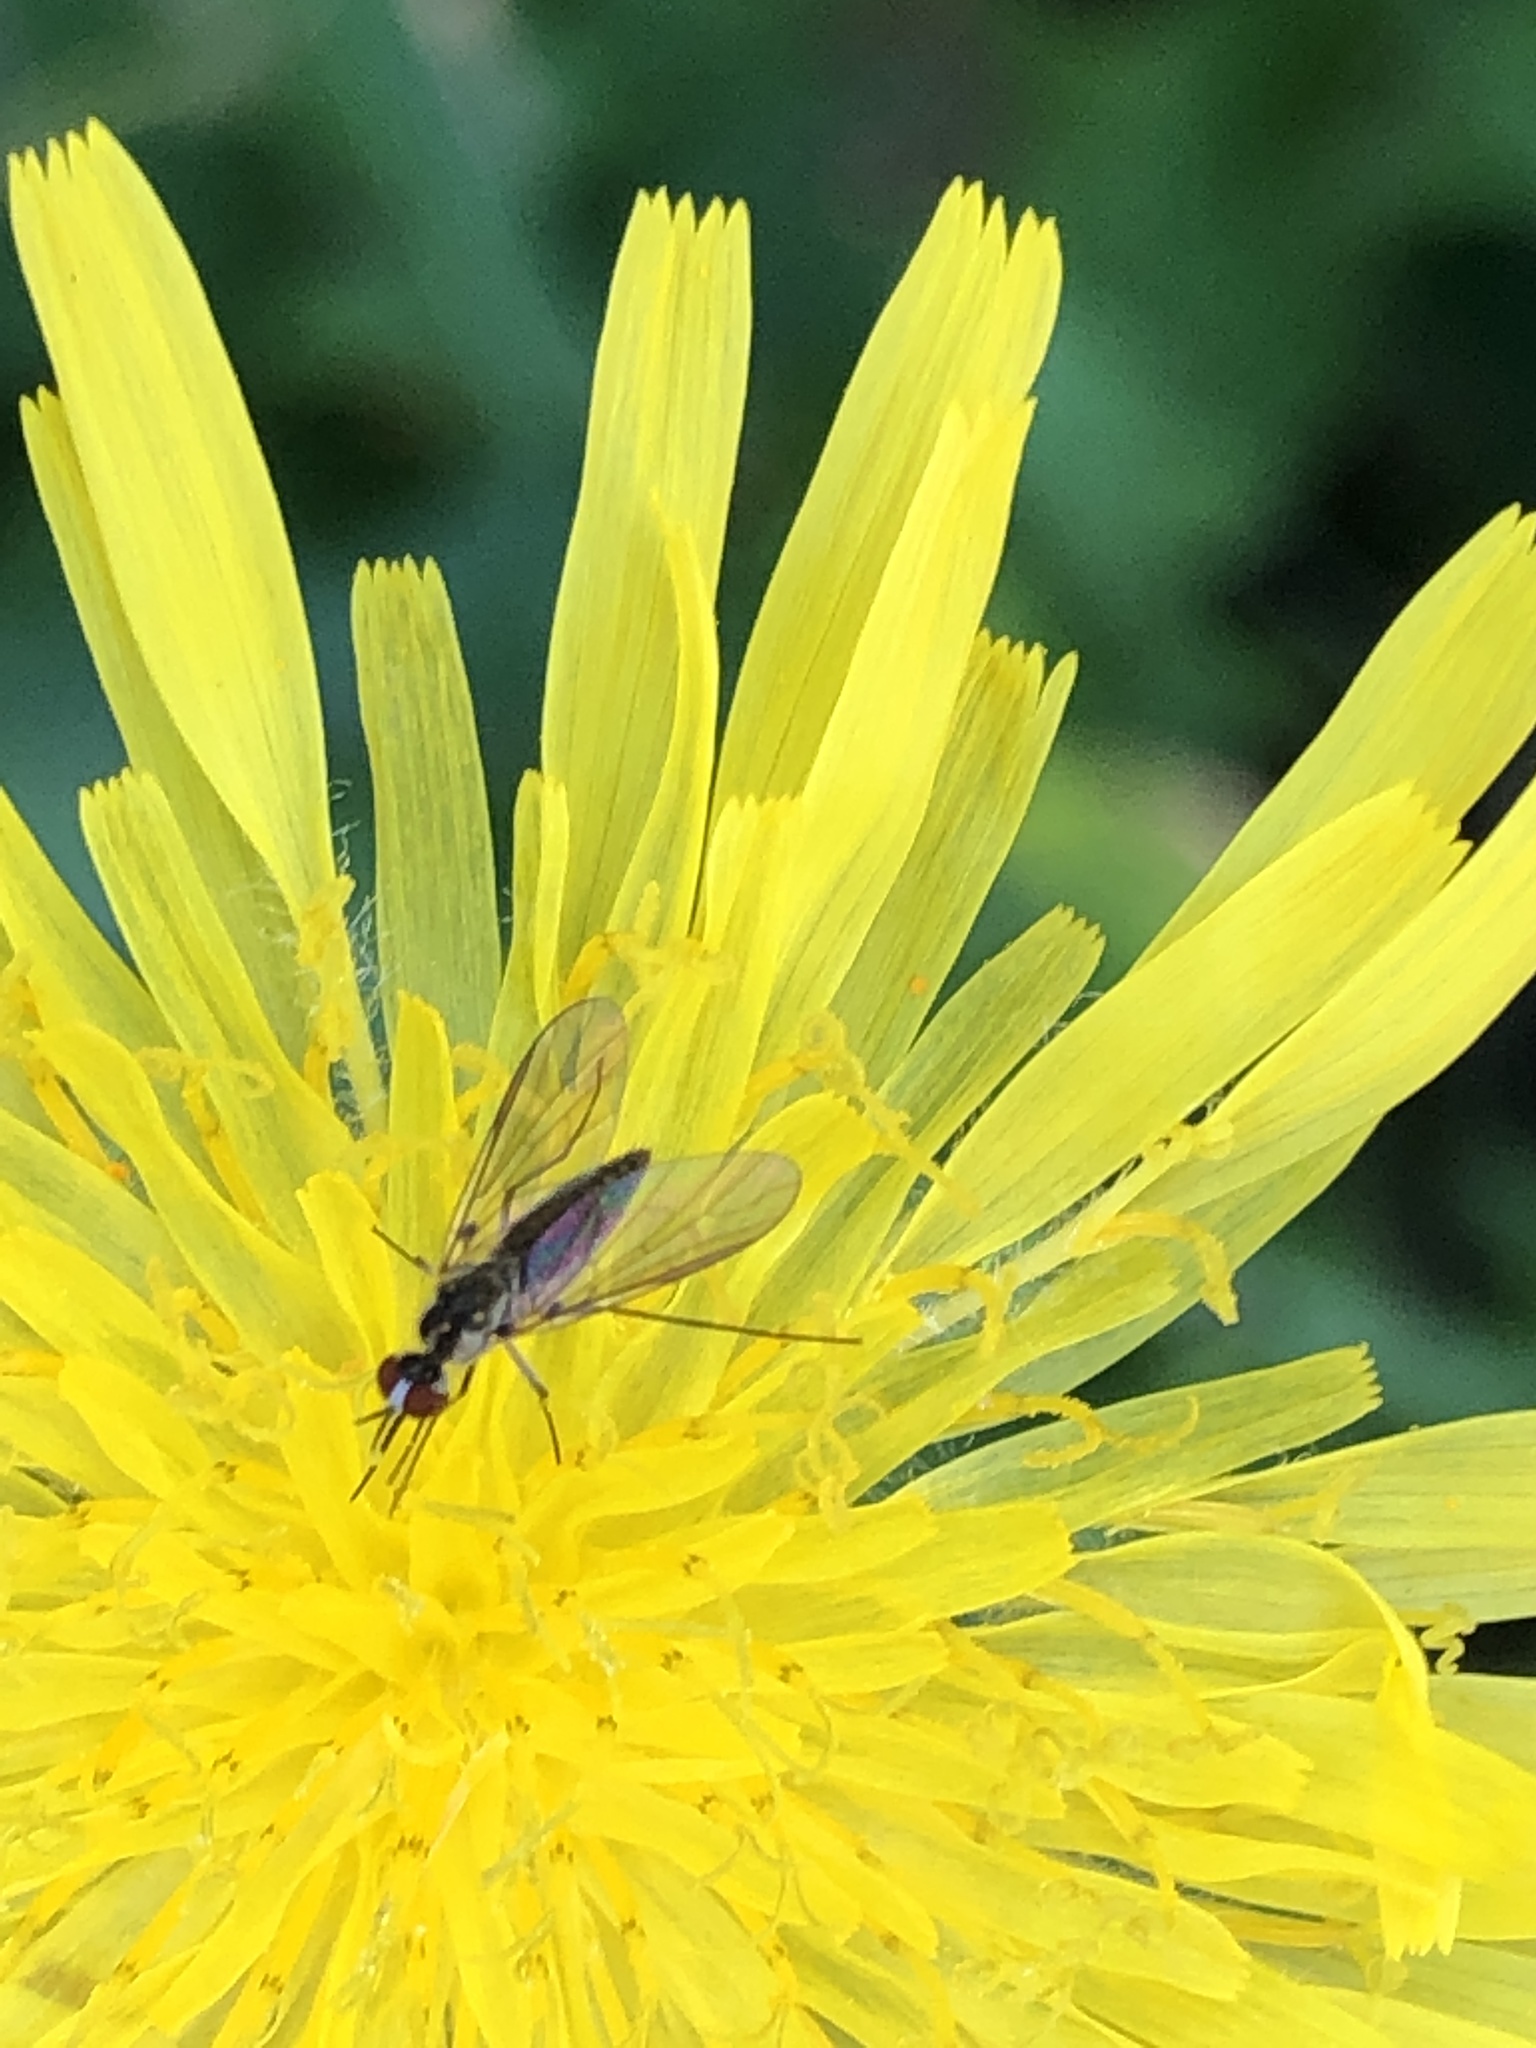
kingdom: Animalia
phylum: Arthropoda
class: Insecta
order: Diptera
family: Bombyliidae
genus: Geron
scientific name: Geron calvus
